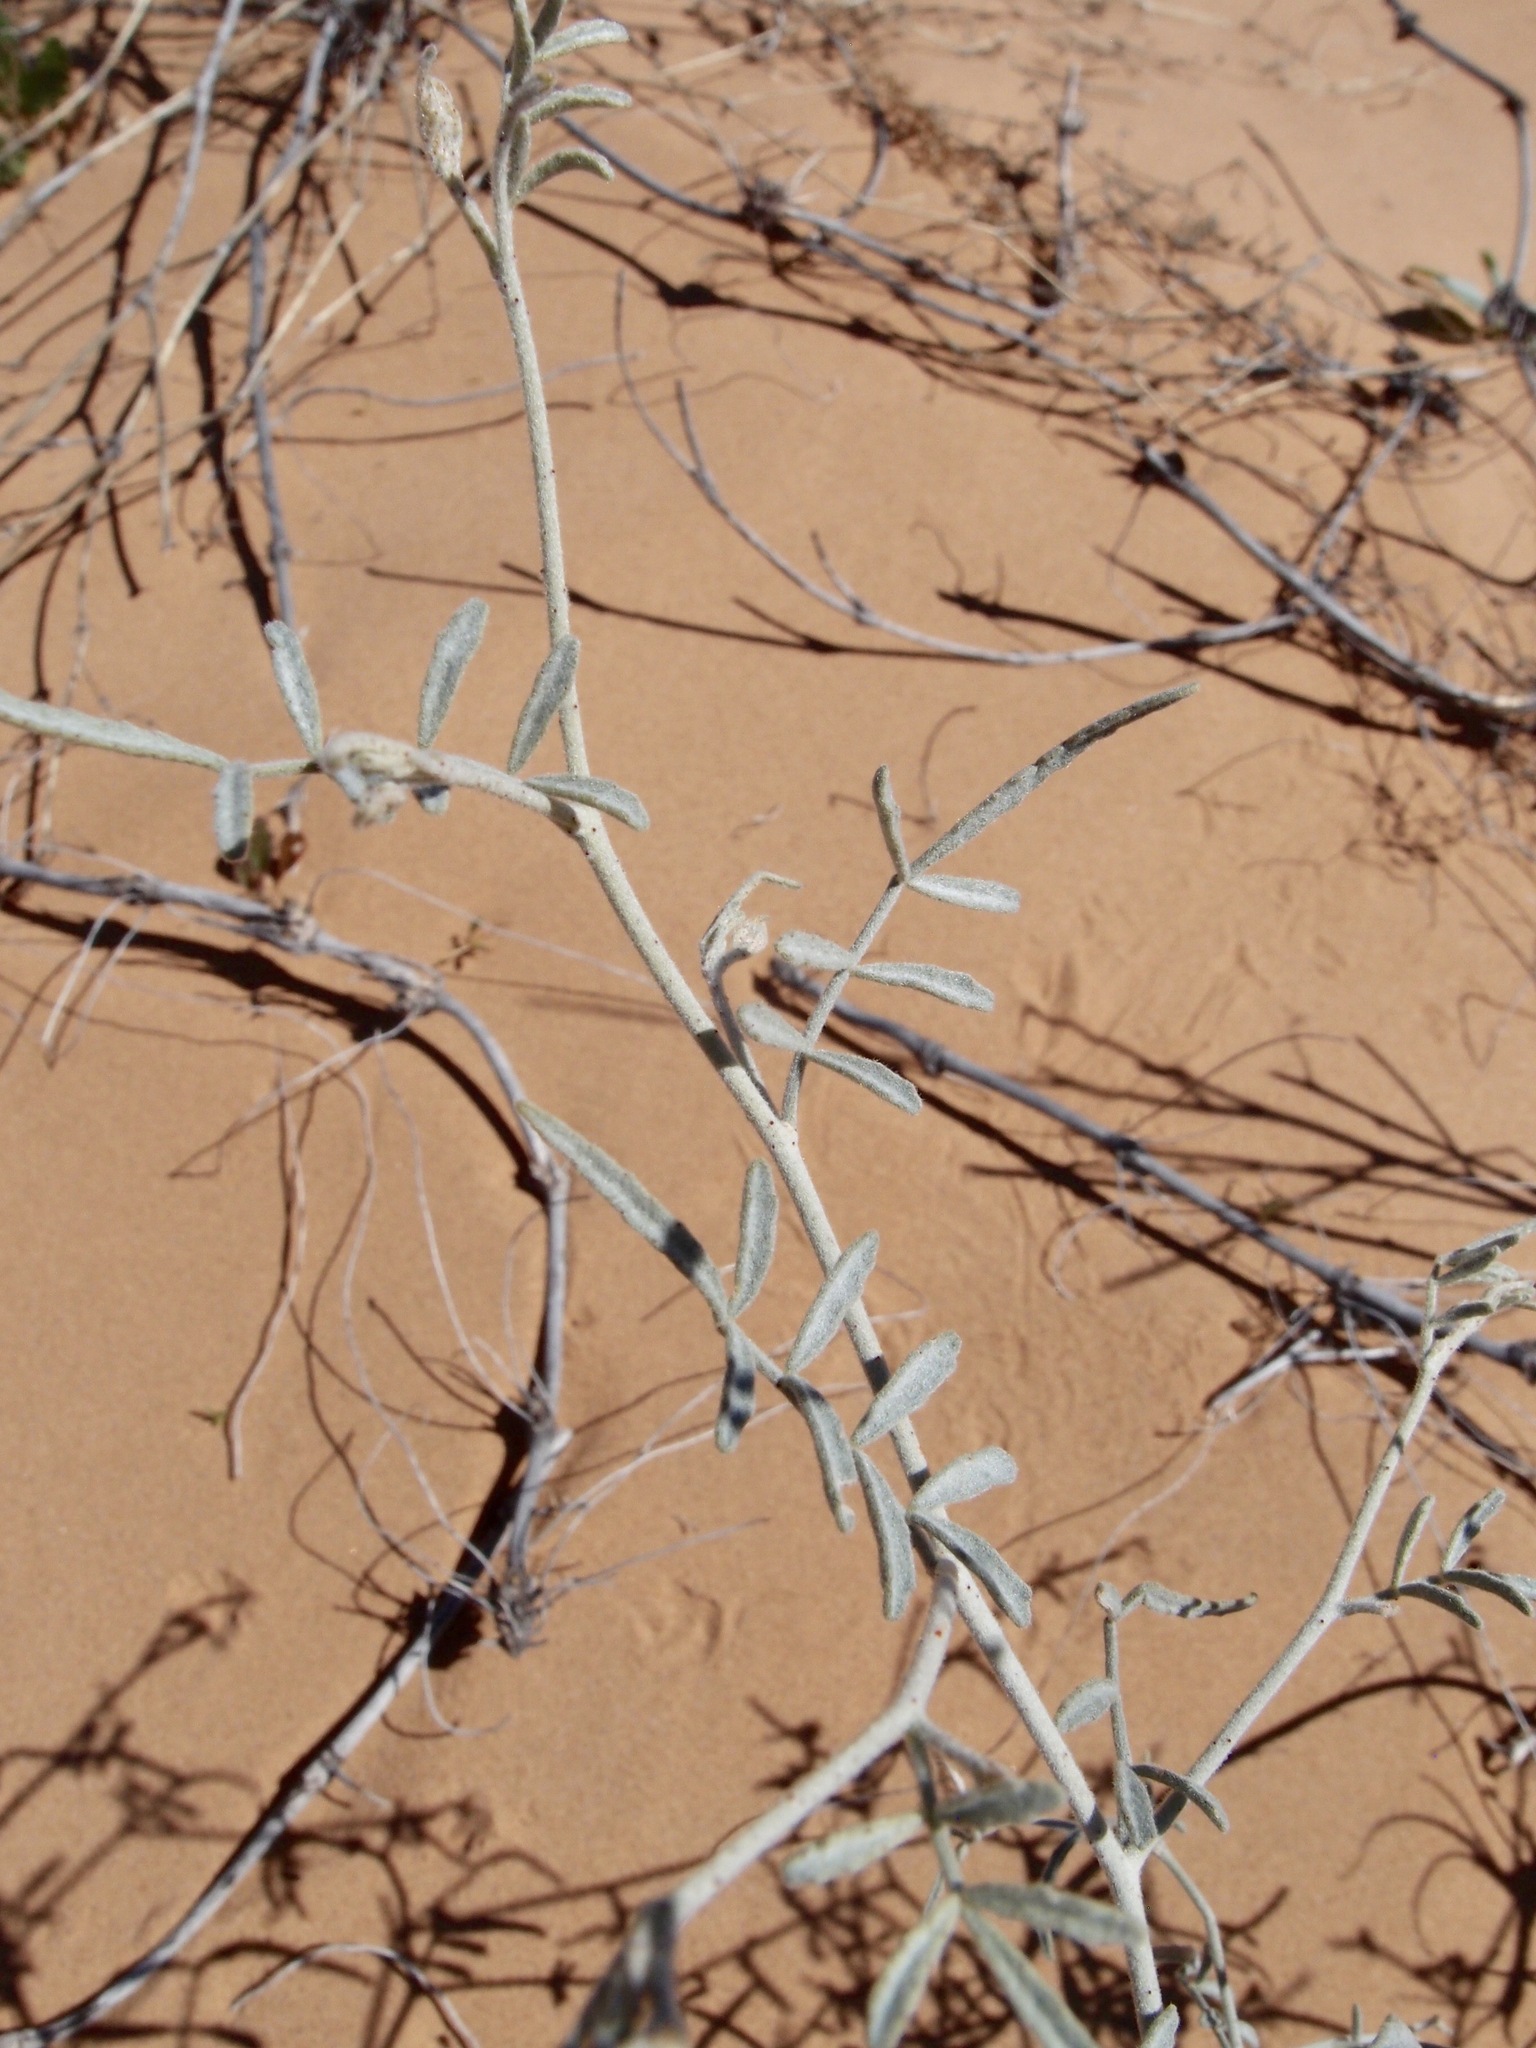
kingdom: Plantae
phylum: Tracheophyta
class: Magnoliopsida
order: Fabales
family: Fabaceae
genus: Psorothamnus
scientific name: Psorothamnus emoryi
